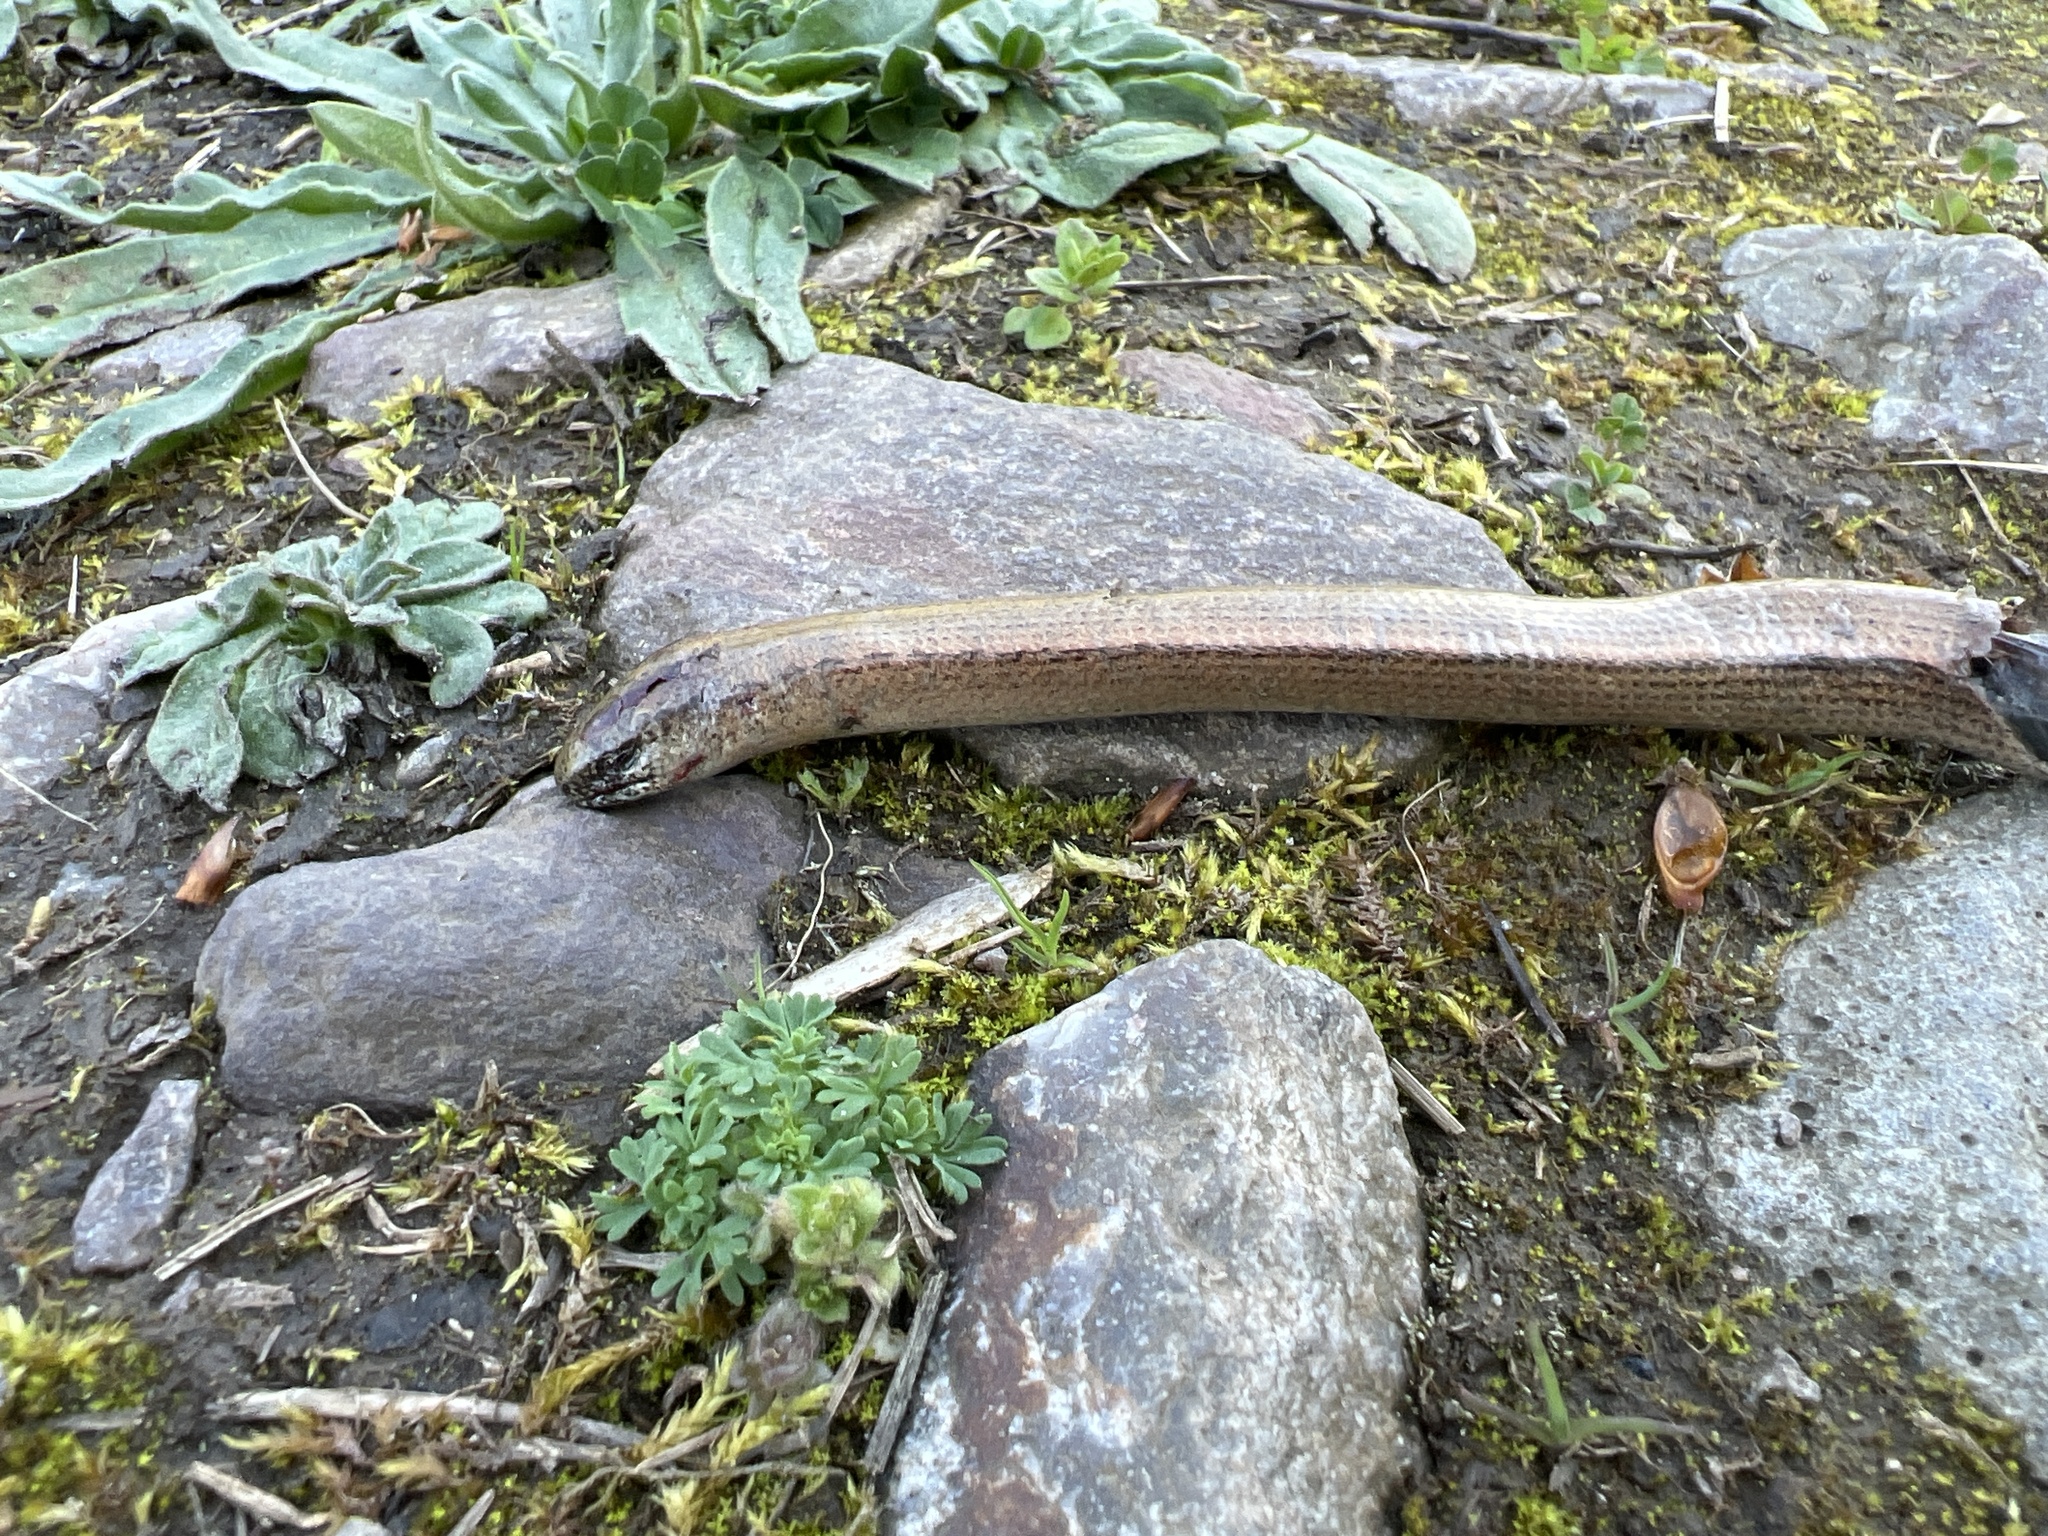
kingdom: Animalia
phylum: Chordata
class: Squamata
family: Anguidae
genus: Anguis
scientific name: Anguis fragilis
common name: Slow worm
